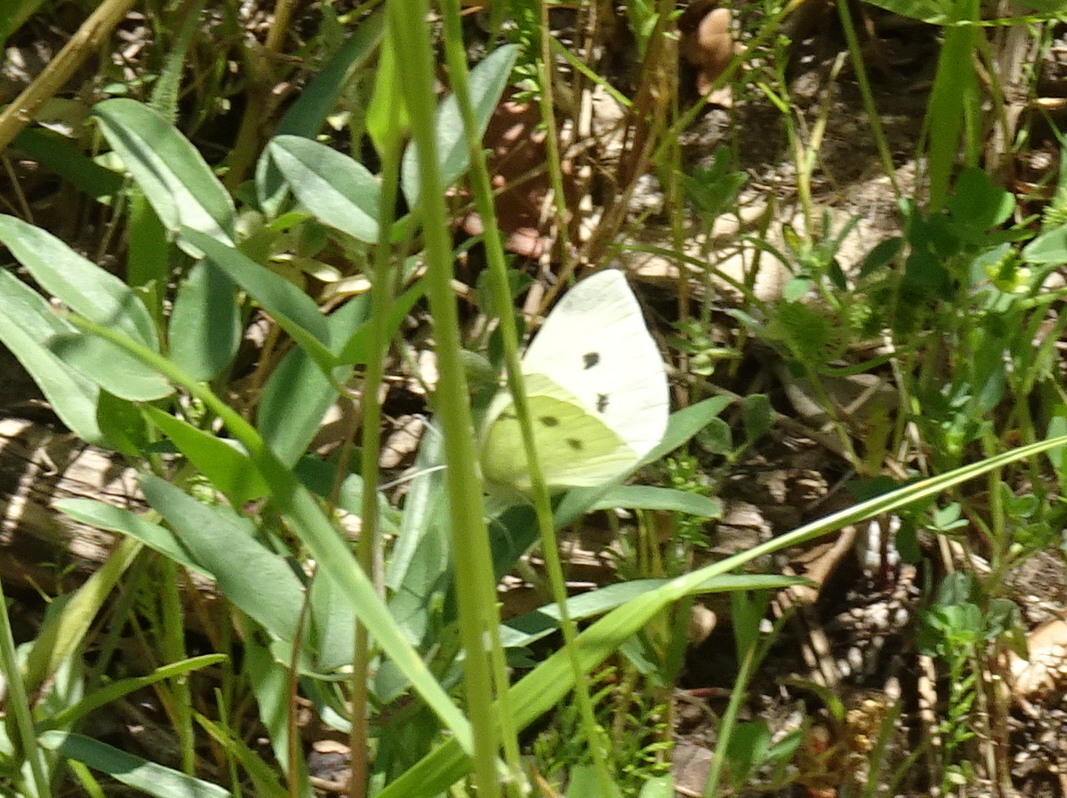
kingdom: Animalia
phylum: Arthropoda
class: Insecta
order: Lepidoptera
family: Pieridae
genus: Pieris
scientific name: Pieris rapae
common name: Small white
